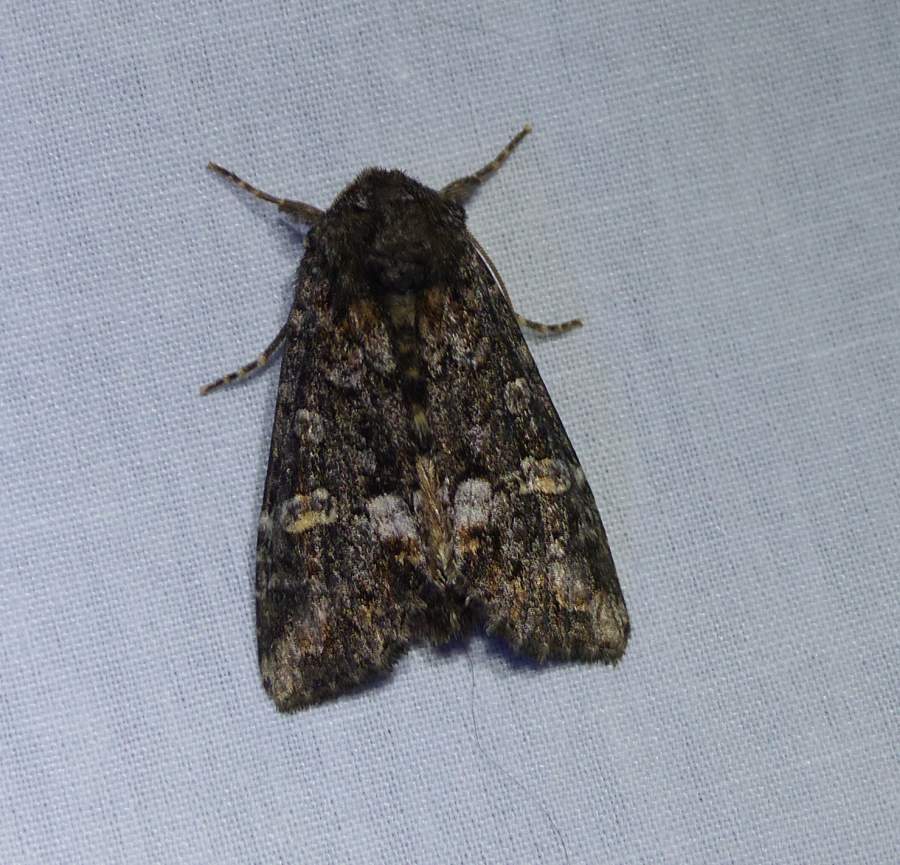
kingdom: Animalia
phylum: Arthropoda
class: Insecta
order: Lepidoptera
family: Noctuidae
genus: Spiramater
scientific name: Spiramater lutra
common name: Otter spiramater moth
